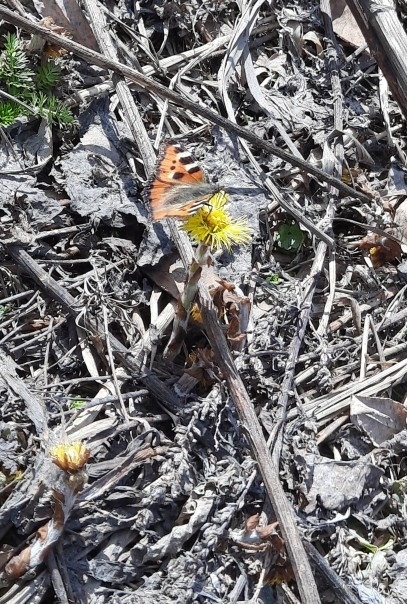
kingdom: Animalia
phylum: Arthropoda
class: Insecta
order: Lepidoptera
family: Nymphalidae
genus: Aglais
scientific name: Aglais urticae
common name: Small tortoiseshell
